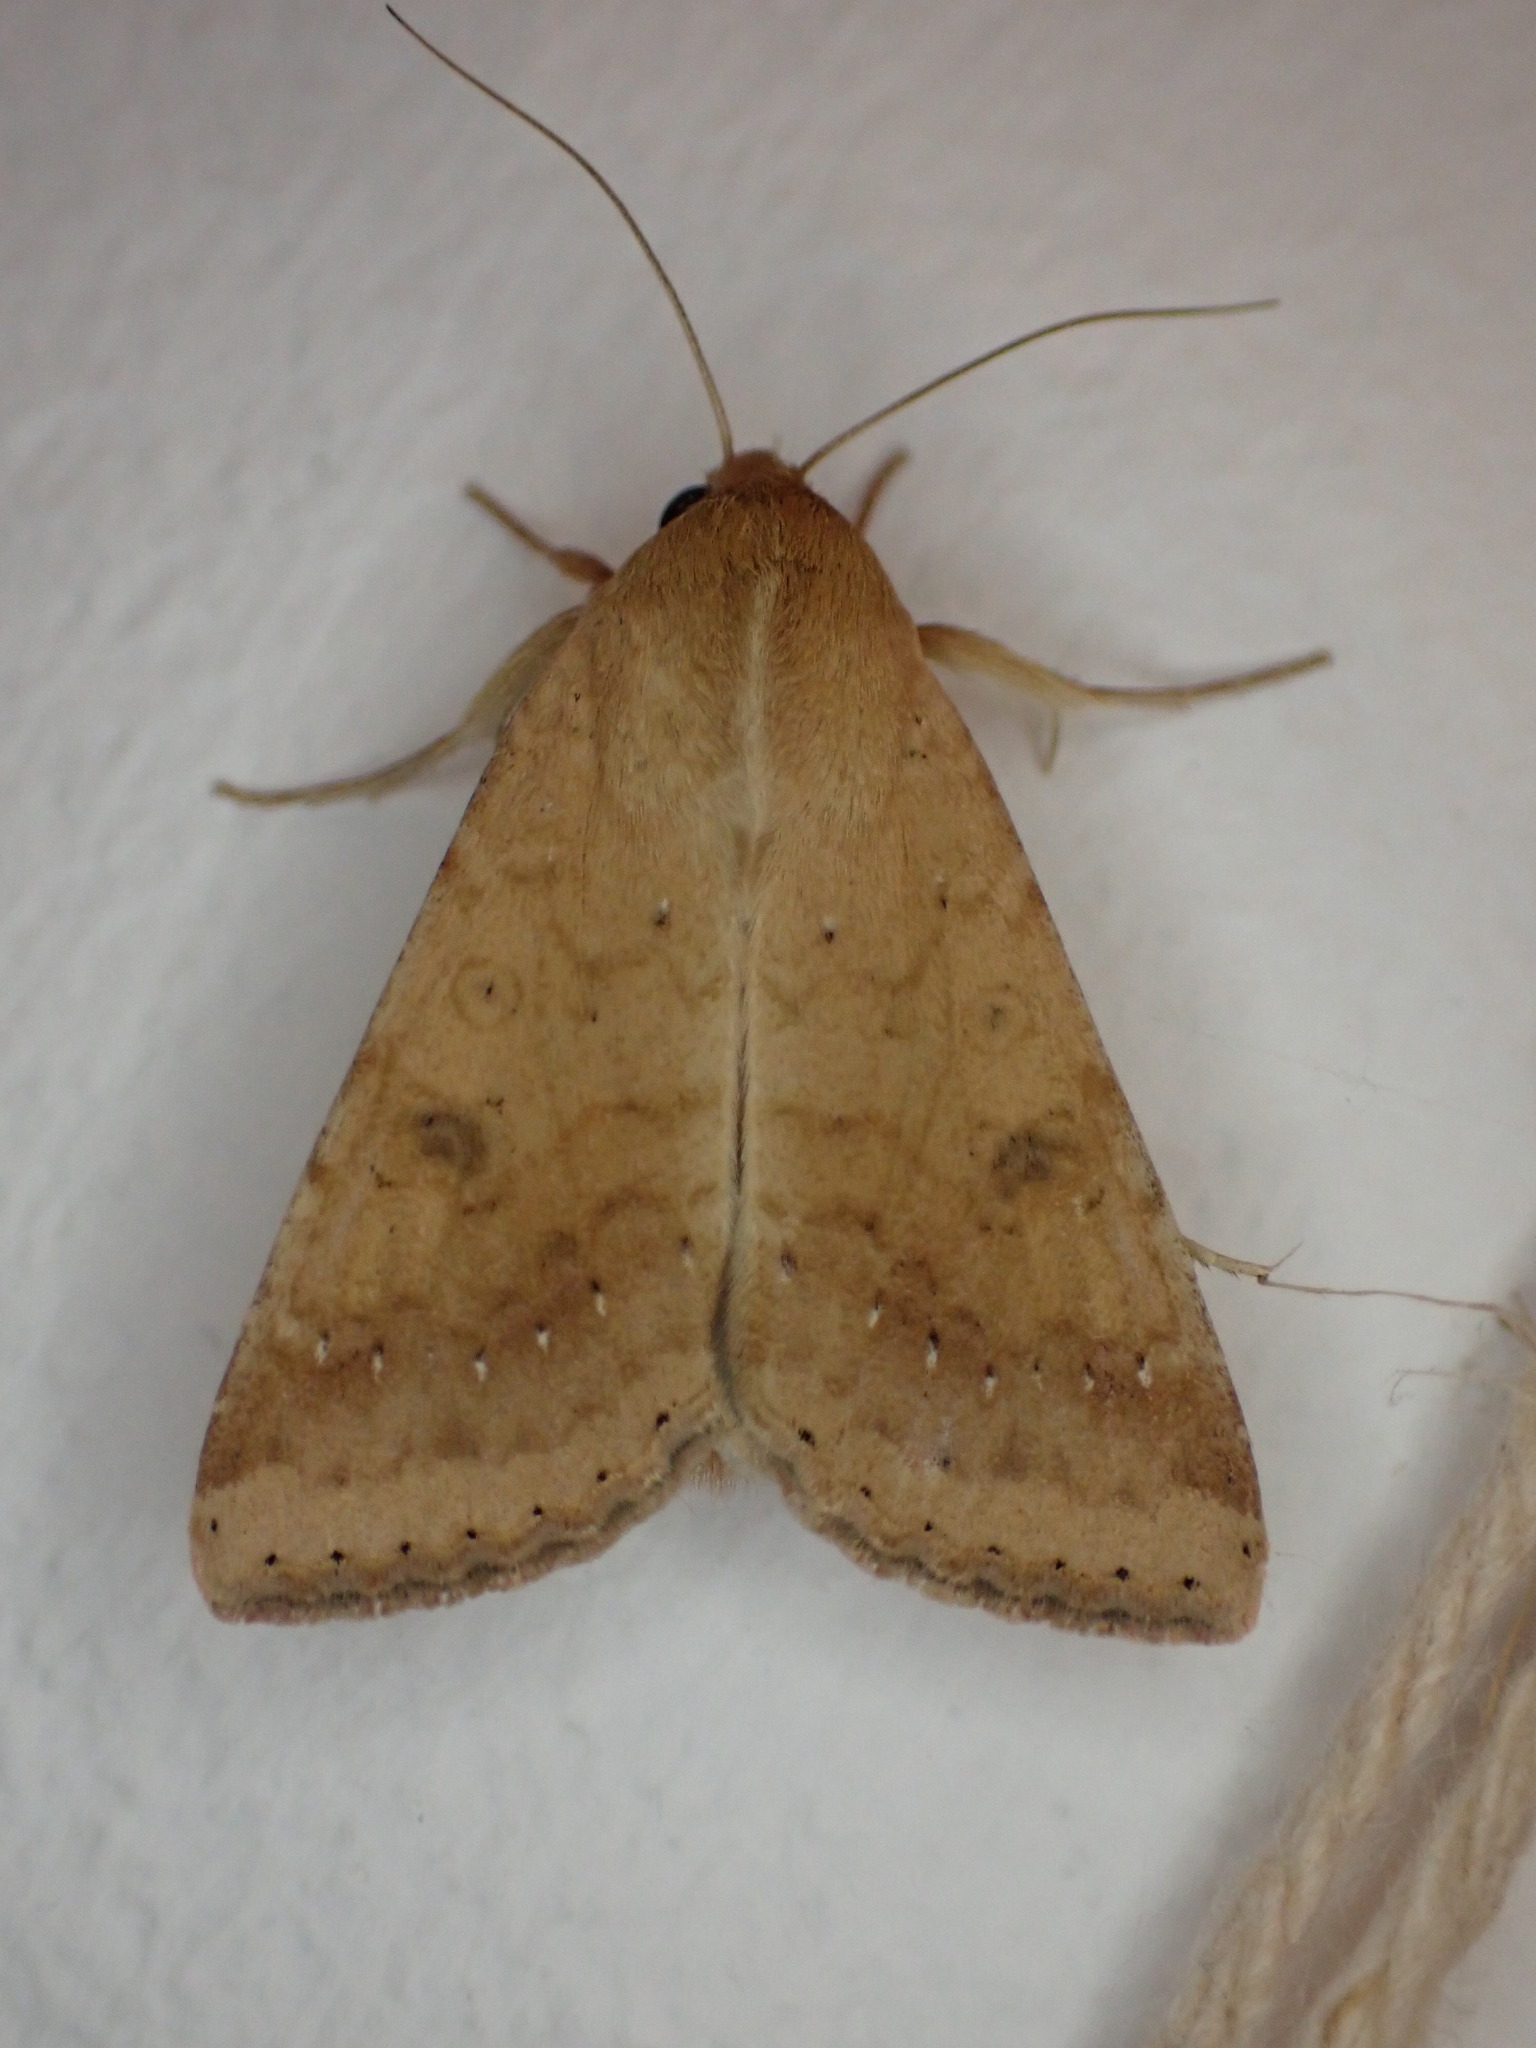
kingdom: Animalia
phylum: Arthropoda
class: Insecta
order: Lepidoptera
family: Noctuidae
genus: Helicoverpa
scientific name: Helicoverpa armigera
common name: Cotton bollworm
